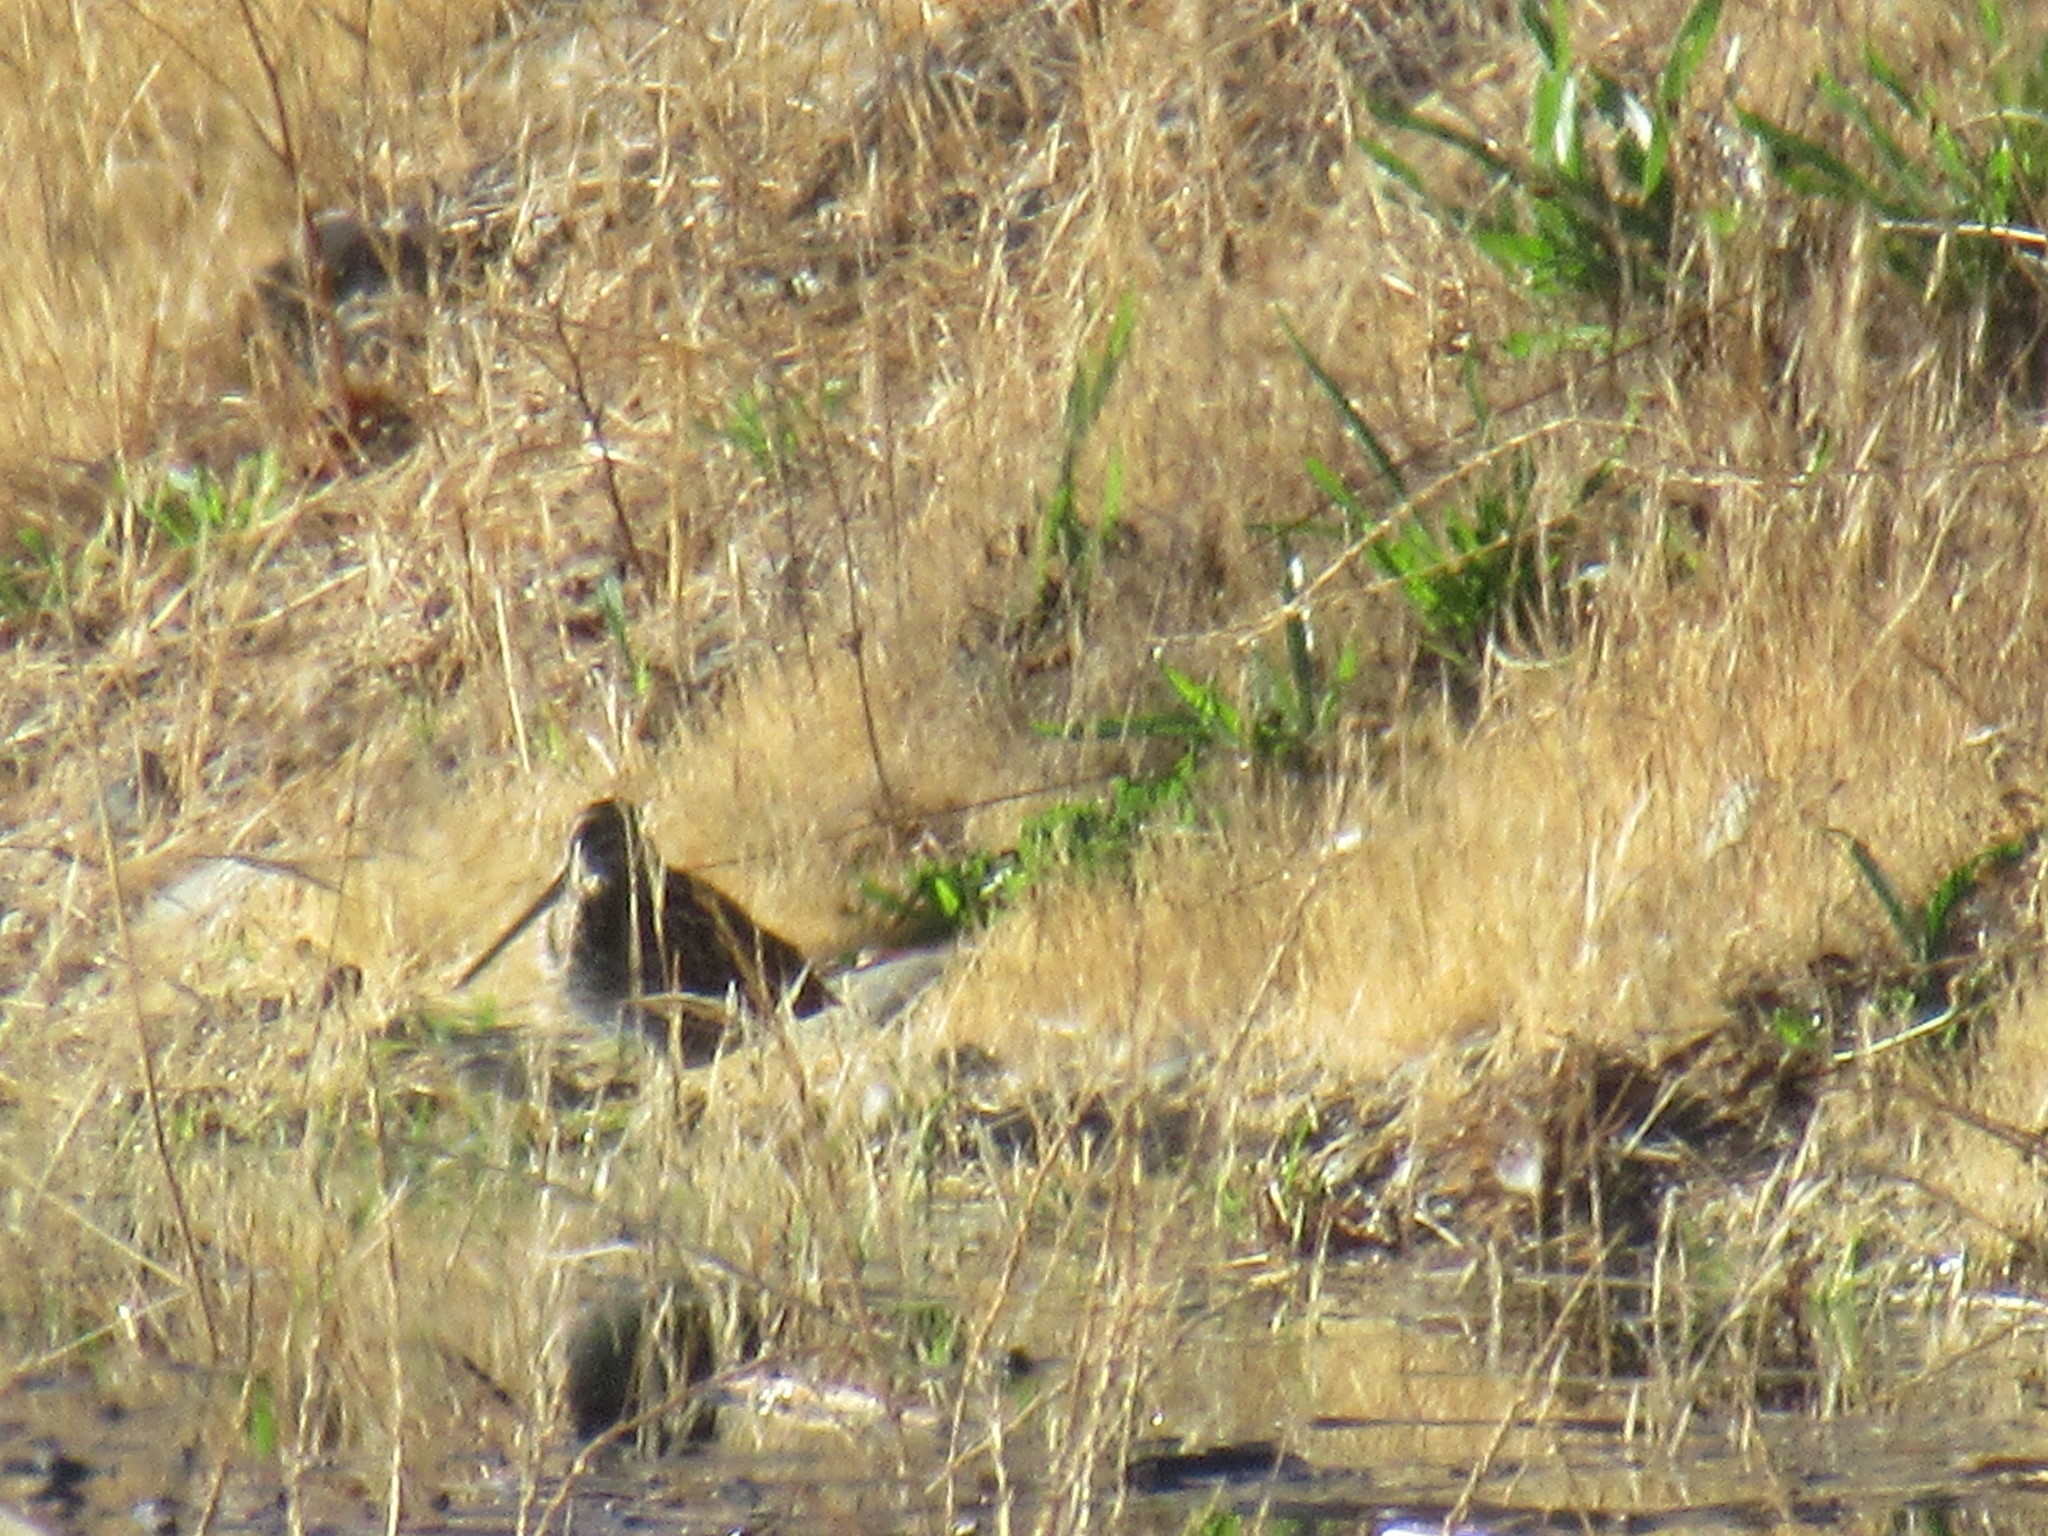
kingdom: Animalia
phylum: Chordata
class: Aves
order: Charadriiformes
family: Scolopacidae
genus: Gallinago
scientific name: Gallinago delicata
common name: Wilson's snipe
